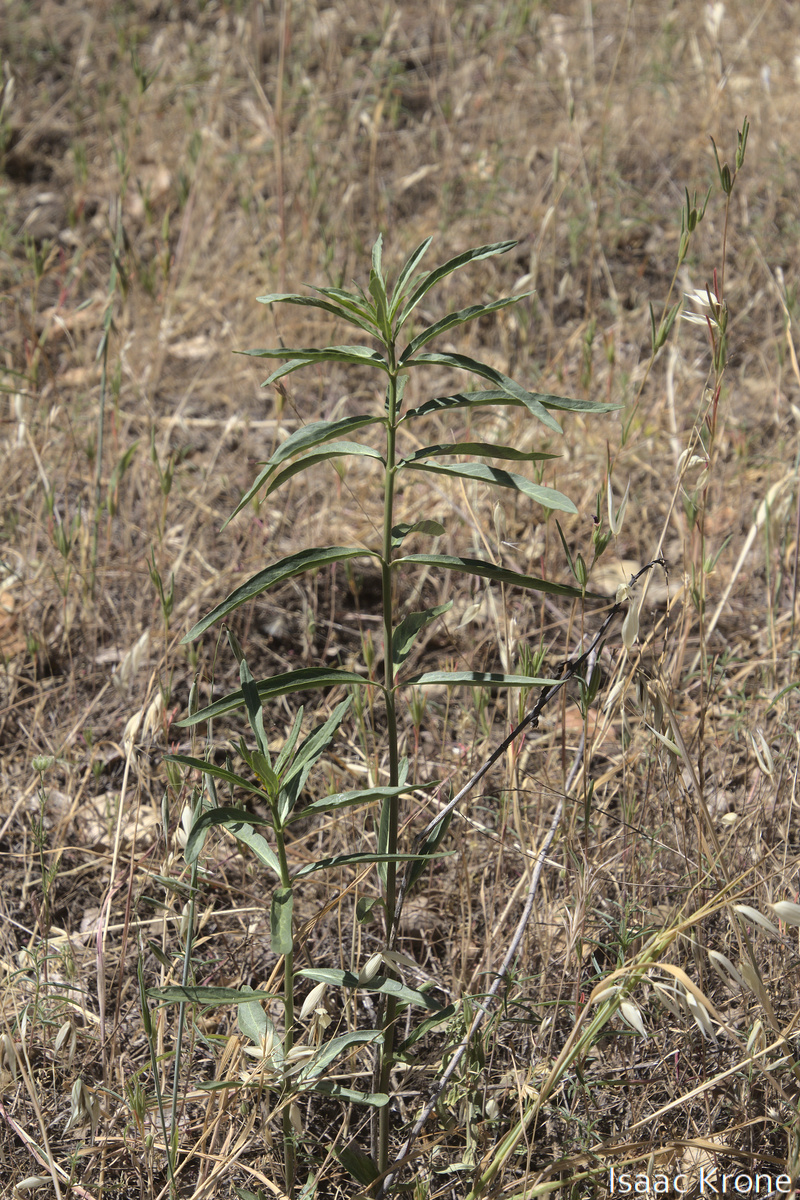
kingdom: Plantae
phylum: Tracheophyta
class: Magnoliopsida
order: Gentianales
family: Apocynaceae
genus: Asclepias
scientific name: Asclepias fascicularis
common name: Mexican milkweed
